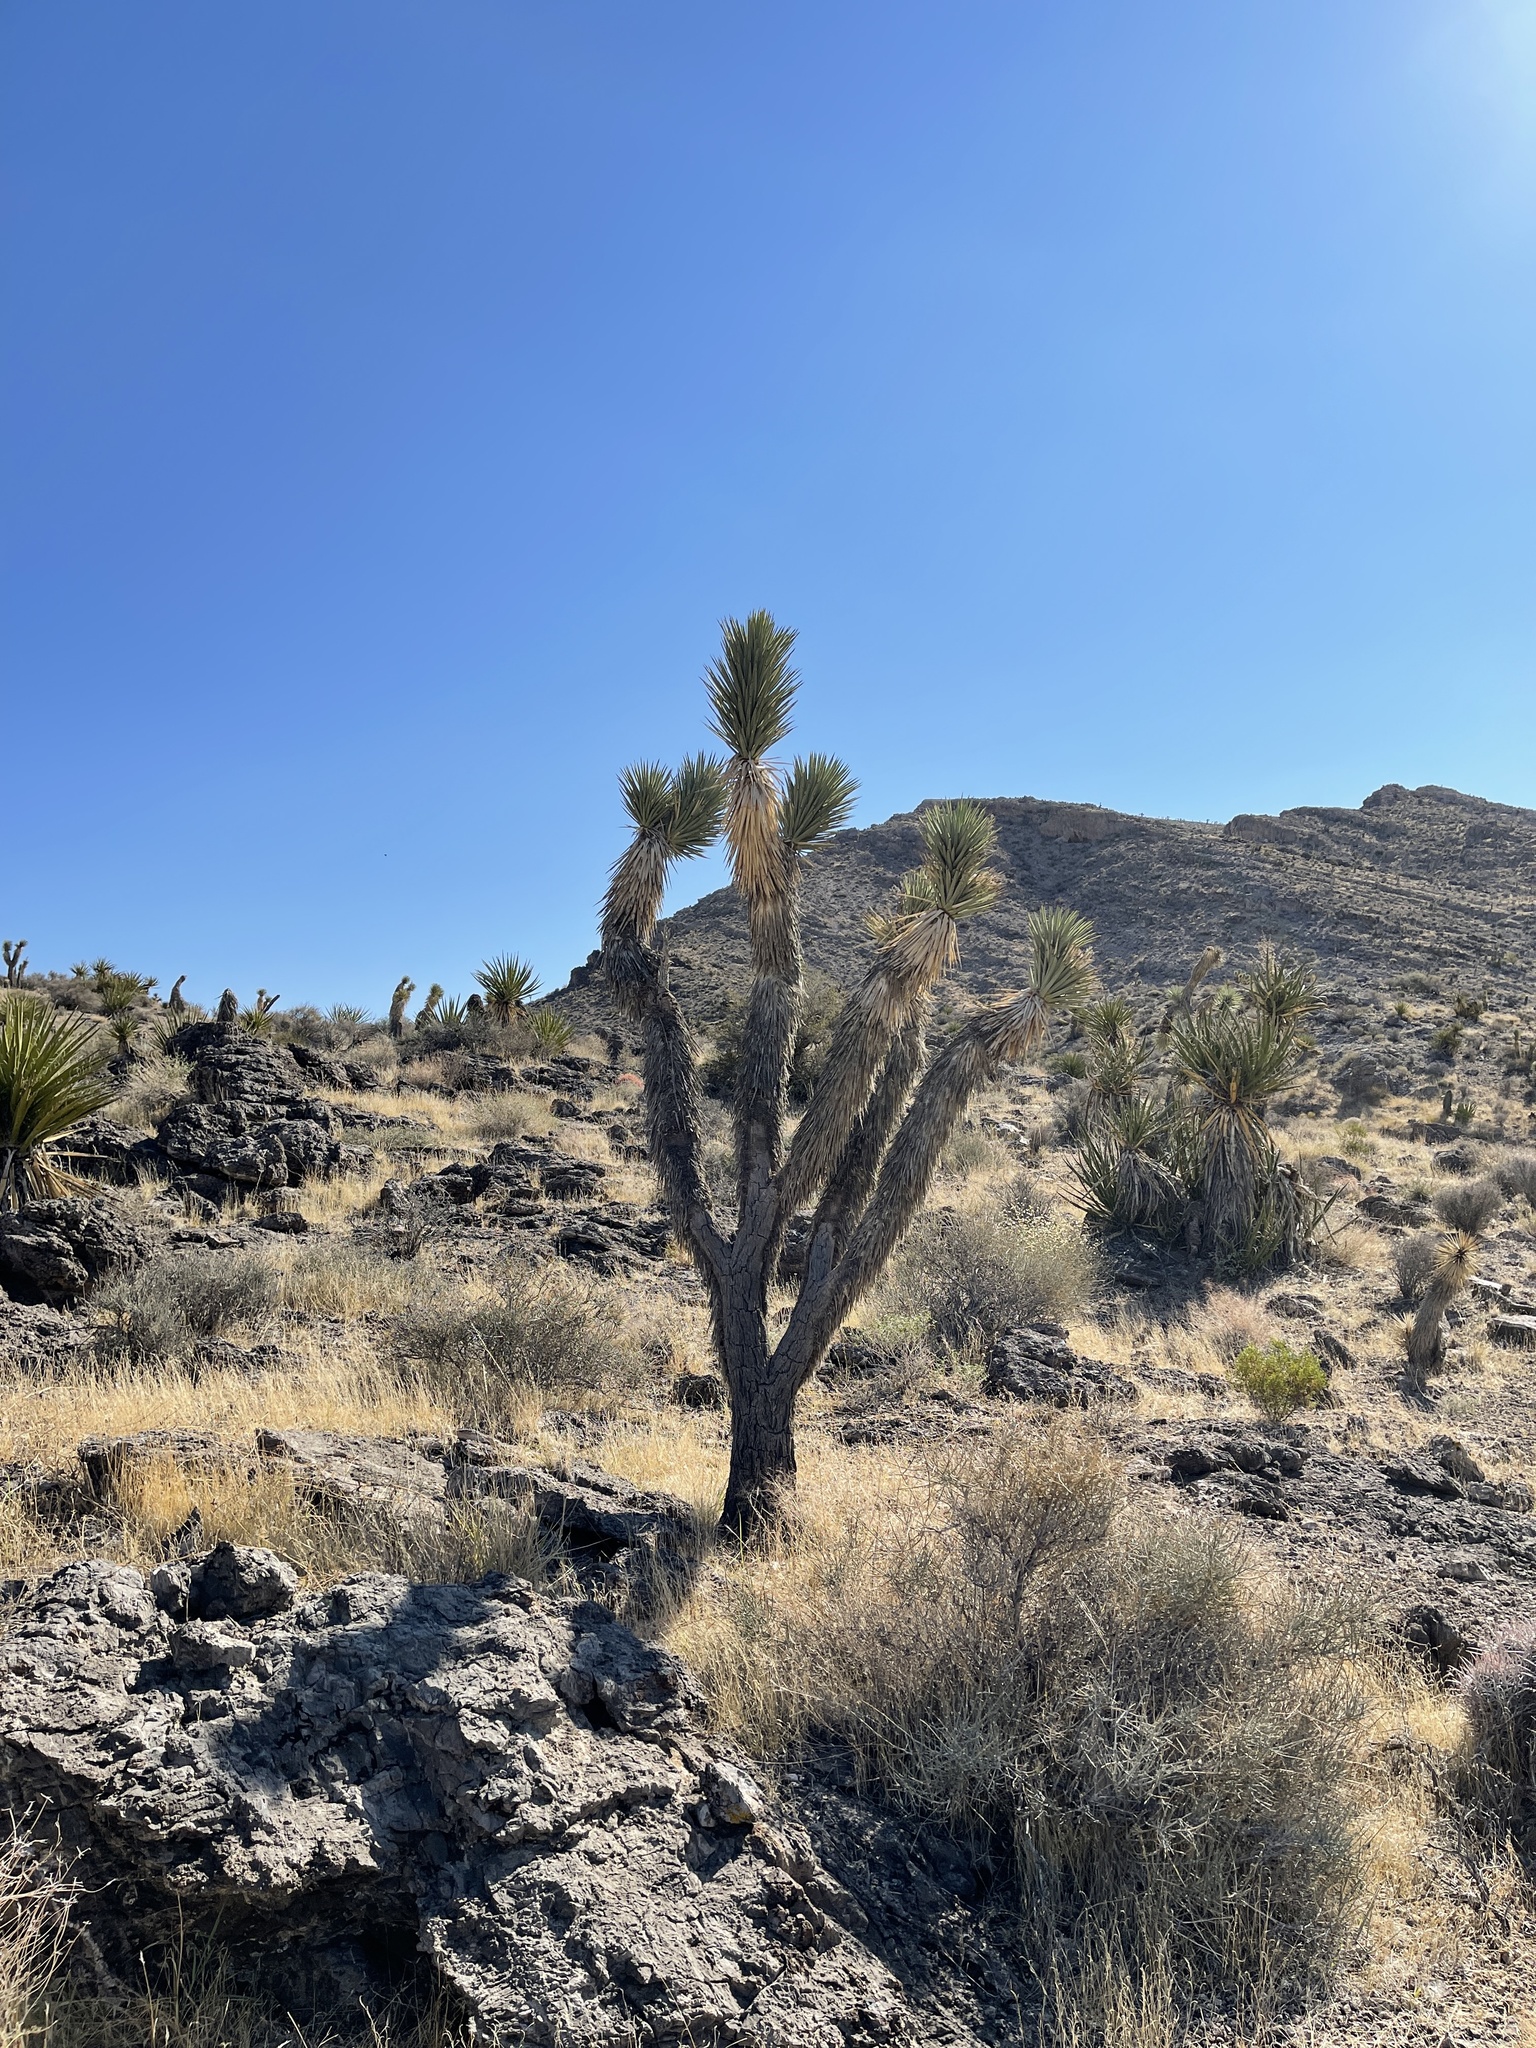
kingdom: Plantae
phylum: Tracheophyta
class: Liliopsida
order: Asparagales
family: Asparagaceae
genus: Yucca
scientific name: Yucca brevifolia
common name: Joshua tree
